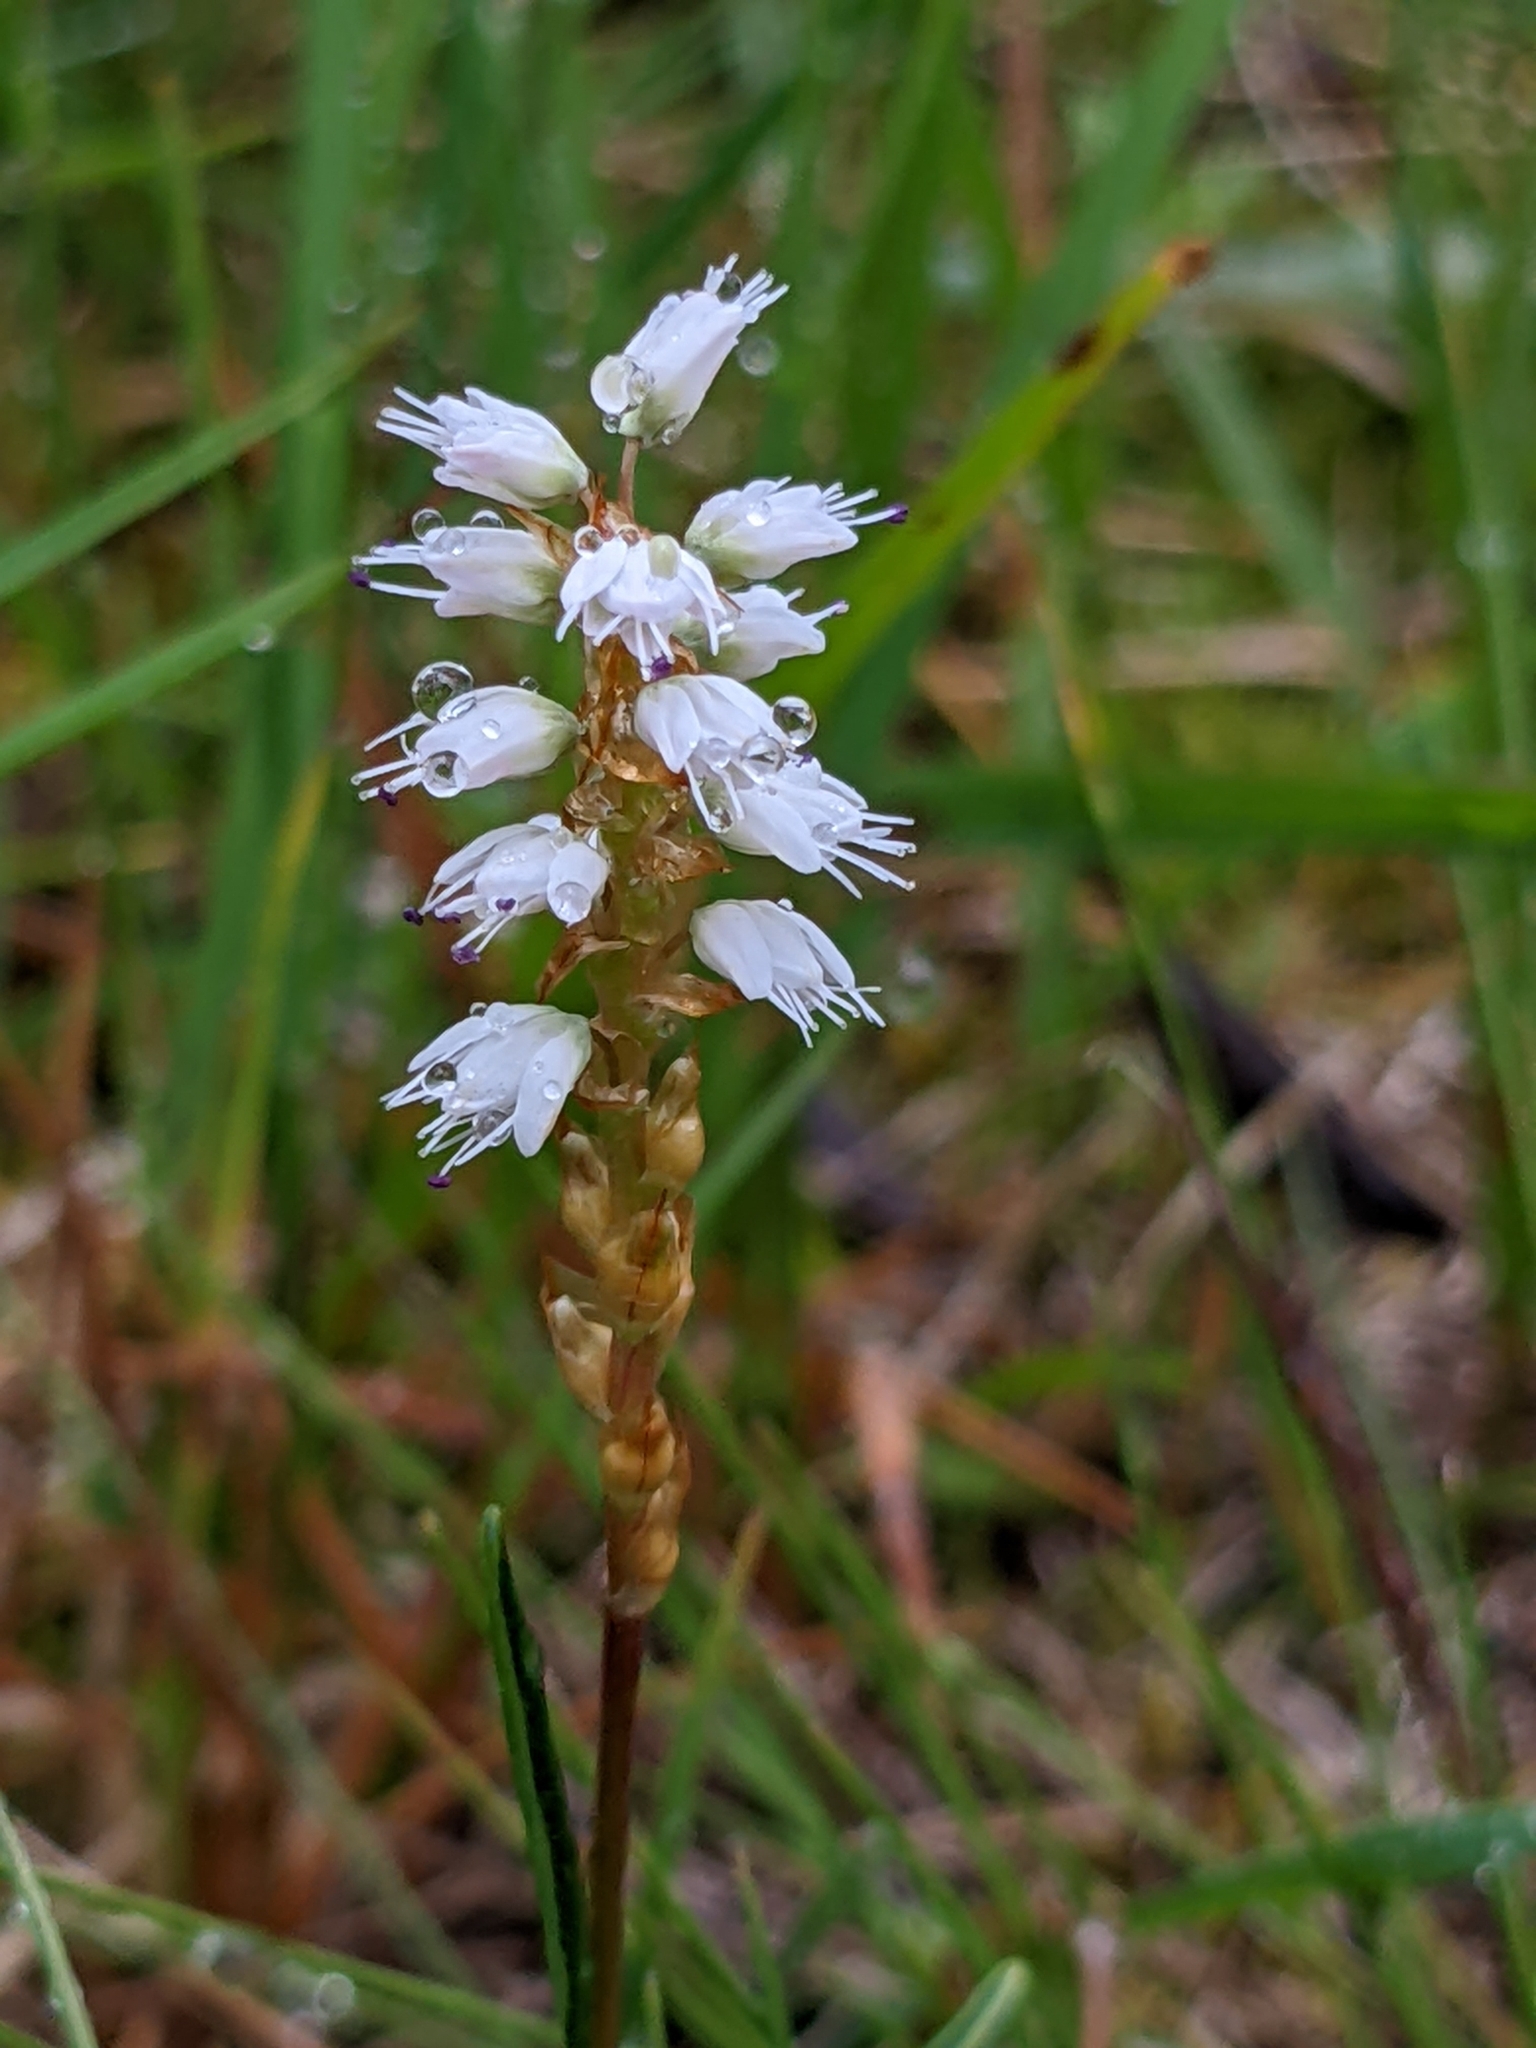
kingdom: Plantae
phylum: Tracheophyta
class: Magnoliopsida
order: Caryophyllales
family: Polygonaceae
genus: Bistorta
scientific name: Bistorta vivipara
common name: Alpine bistort
